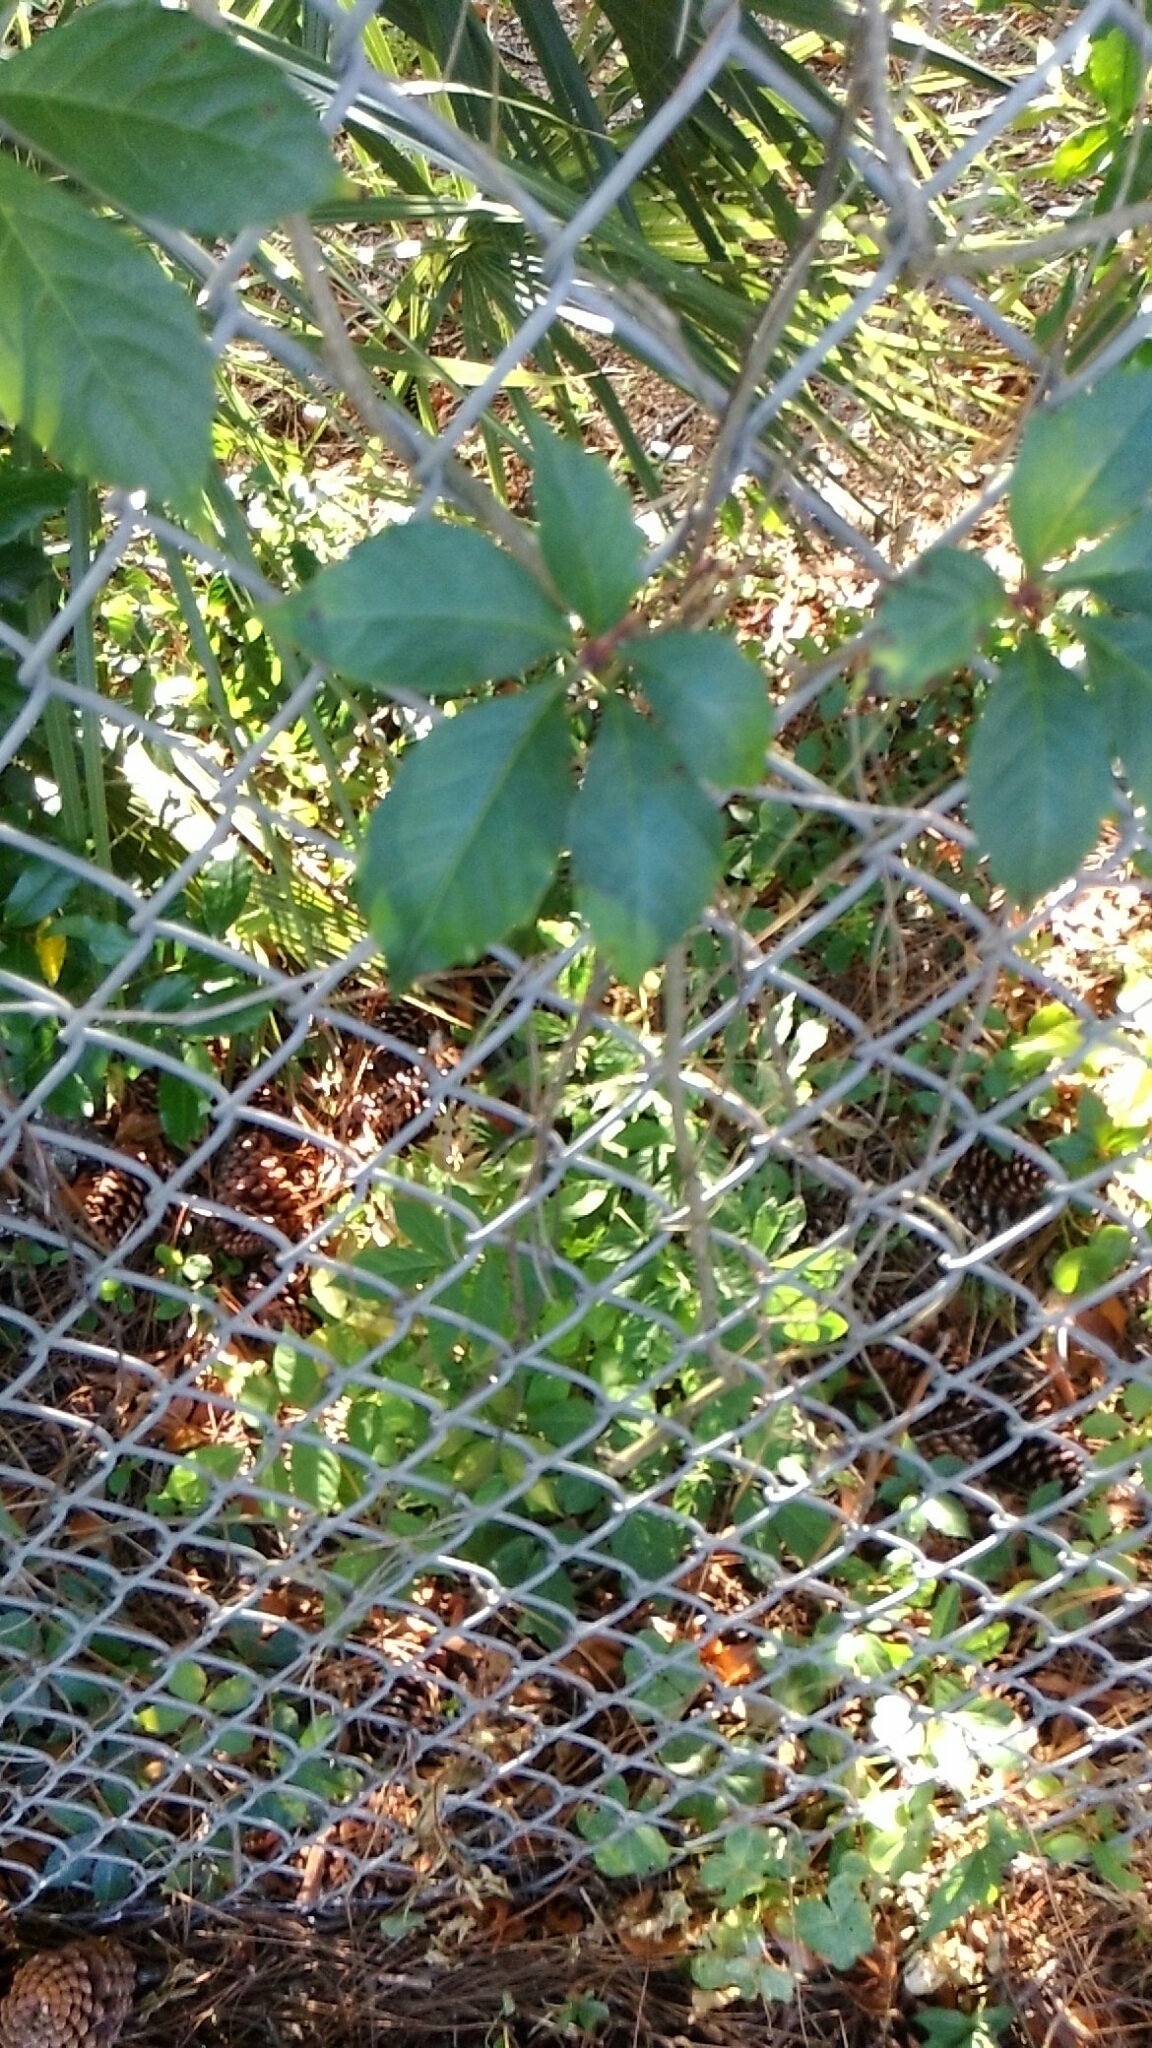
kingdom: Plantae
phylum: Tracheophyta
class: Magnoliopsida
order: Vitales
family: Vitaceae
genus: Parthenocissus
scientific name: Parthenocissus quinquefolia
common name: Virginia-creeper
